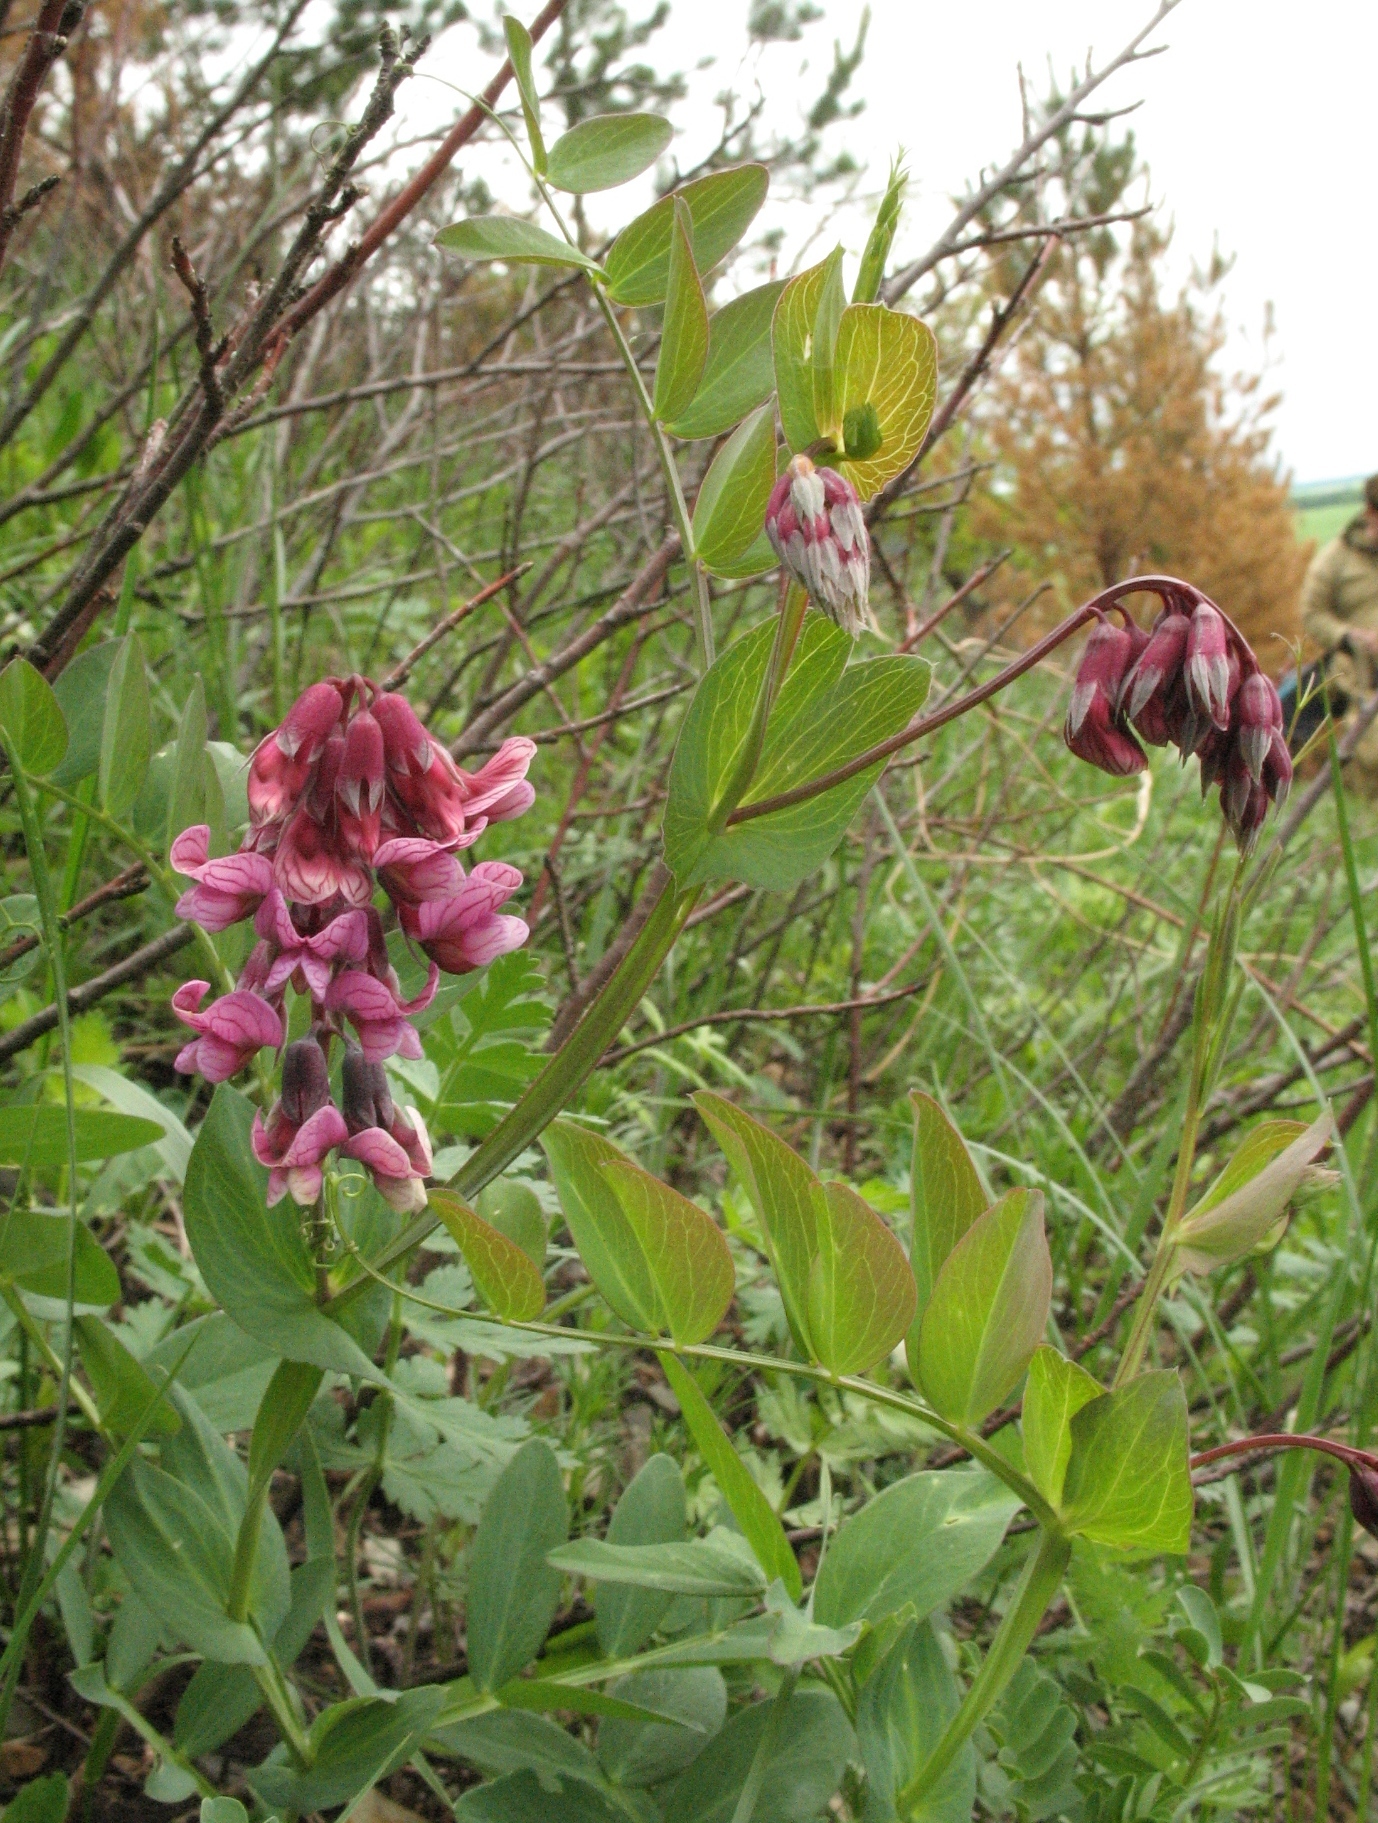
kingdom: Plantae
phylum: Tracheophyta
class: Magnoliopsida
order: Fabales
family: Fabaceae
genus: Lathyrus
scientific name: Lathyrus pisiformis
